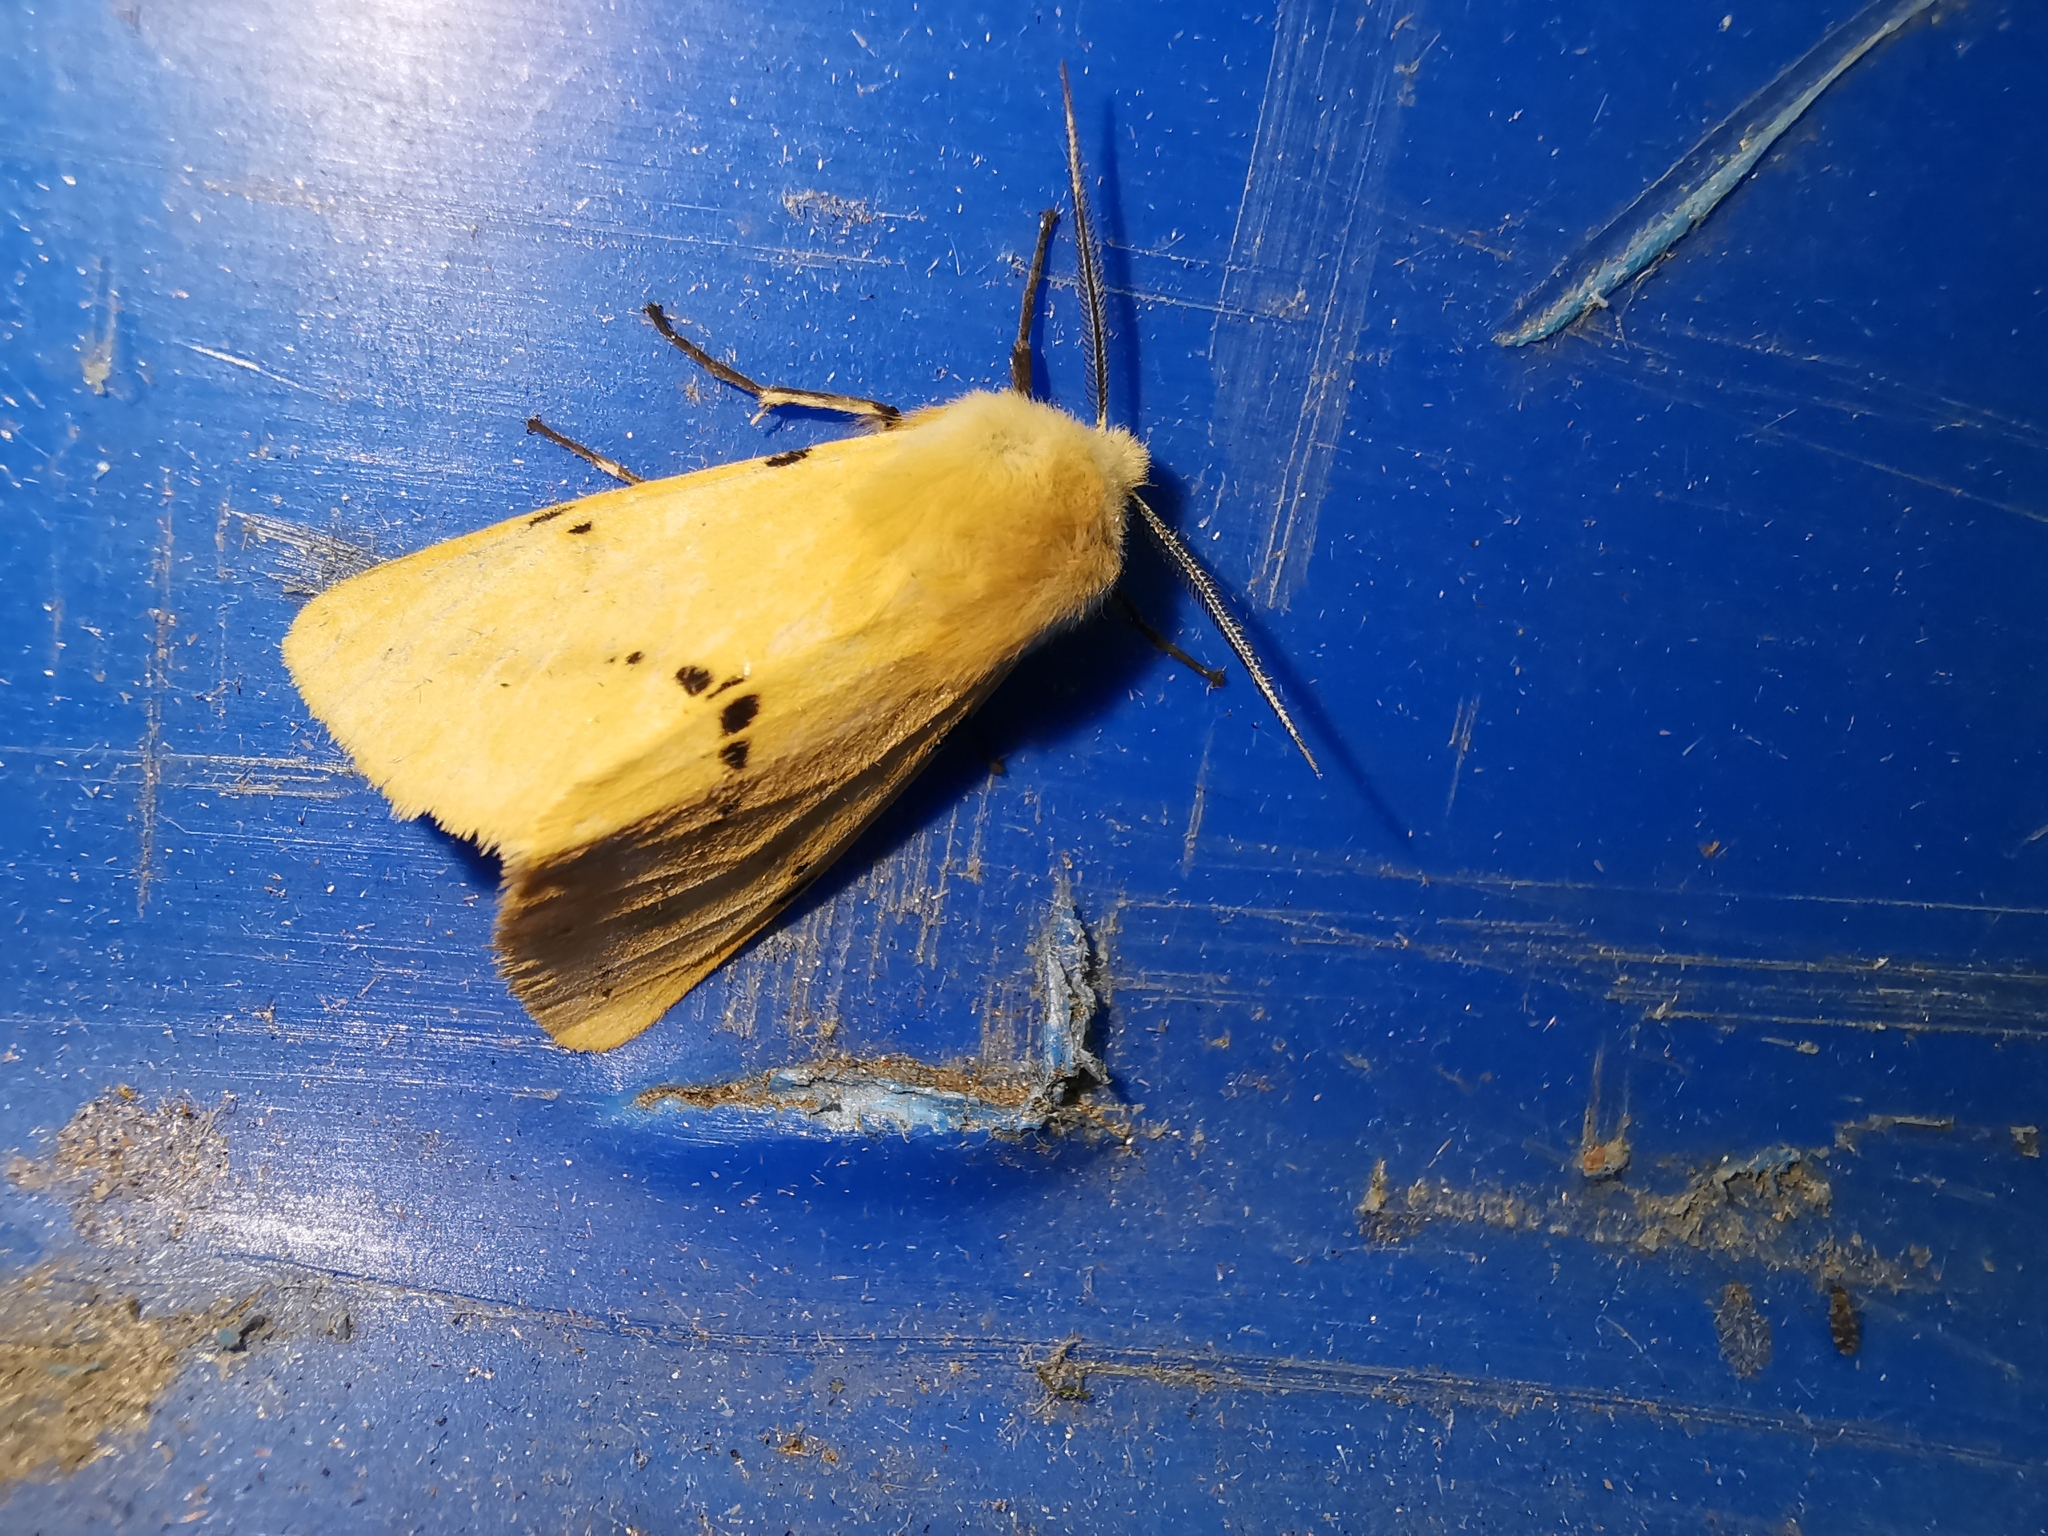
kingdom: Animalia
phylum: Arthropoda
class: Insecta
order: Lepidoptera
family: Erebidae
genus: Spilarctia
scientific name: Spilarctia lutea
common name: Buff ermine
